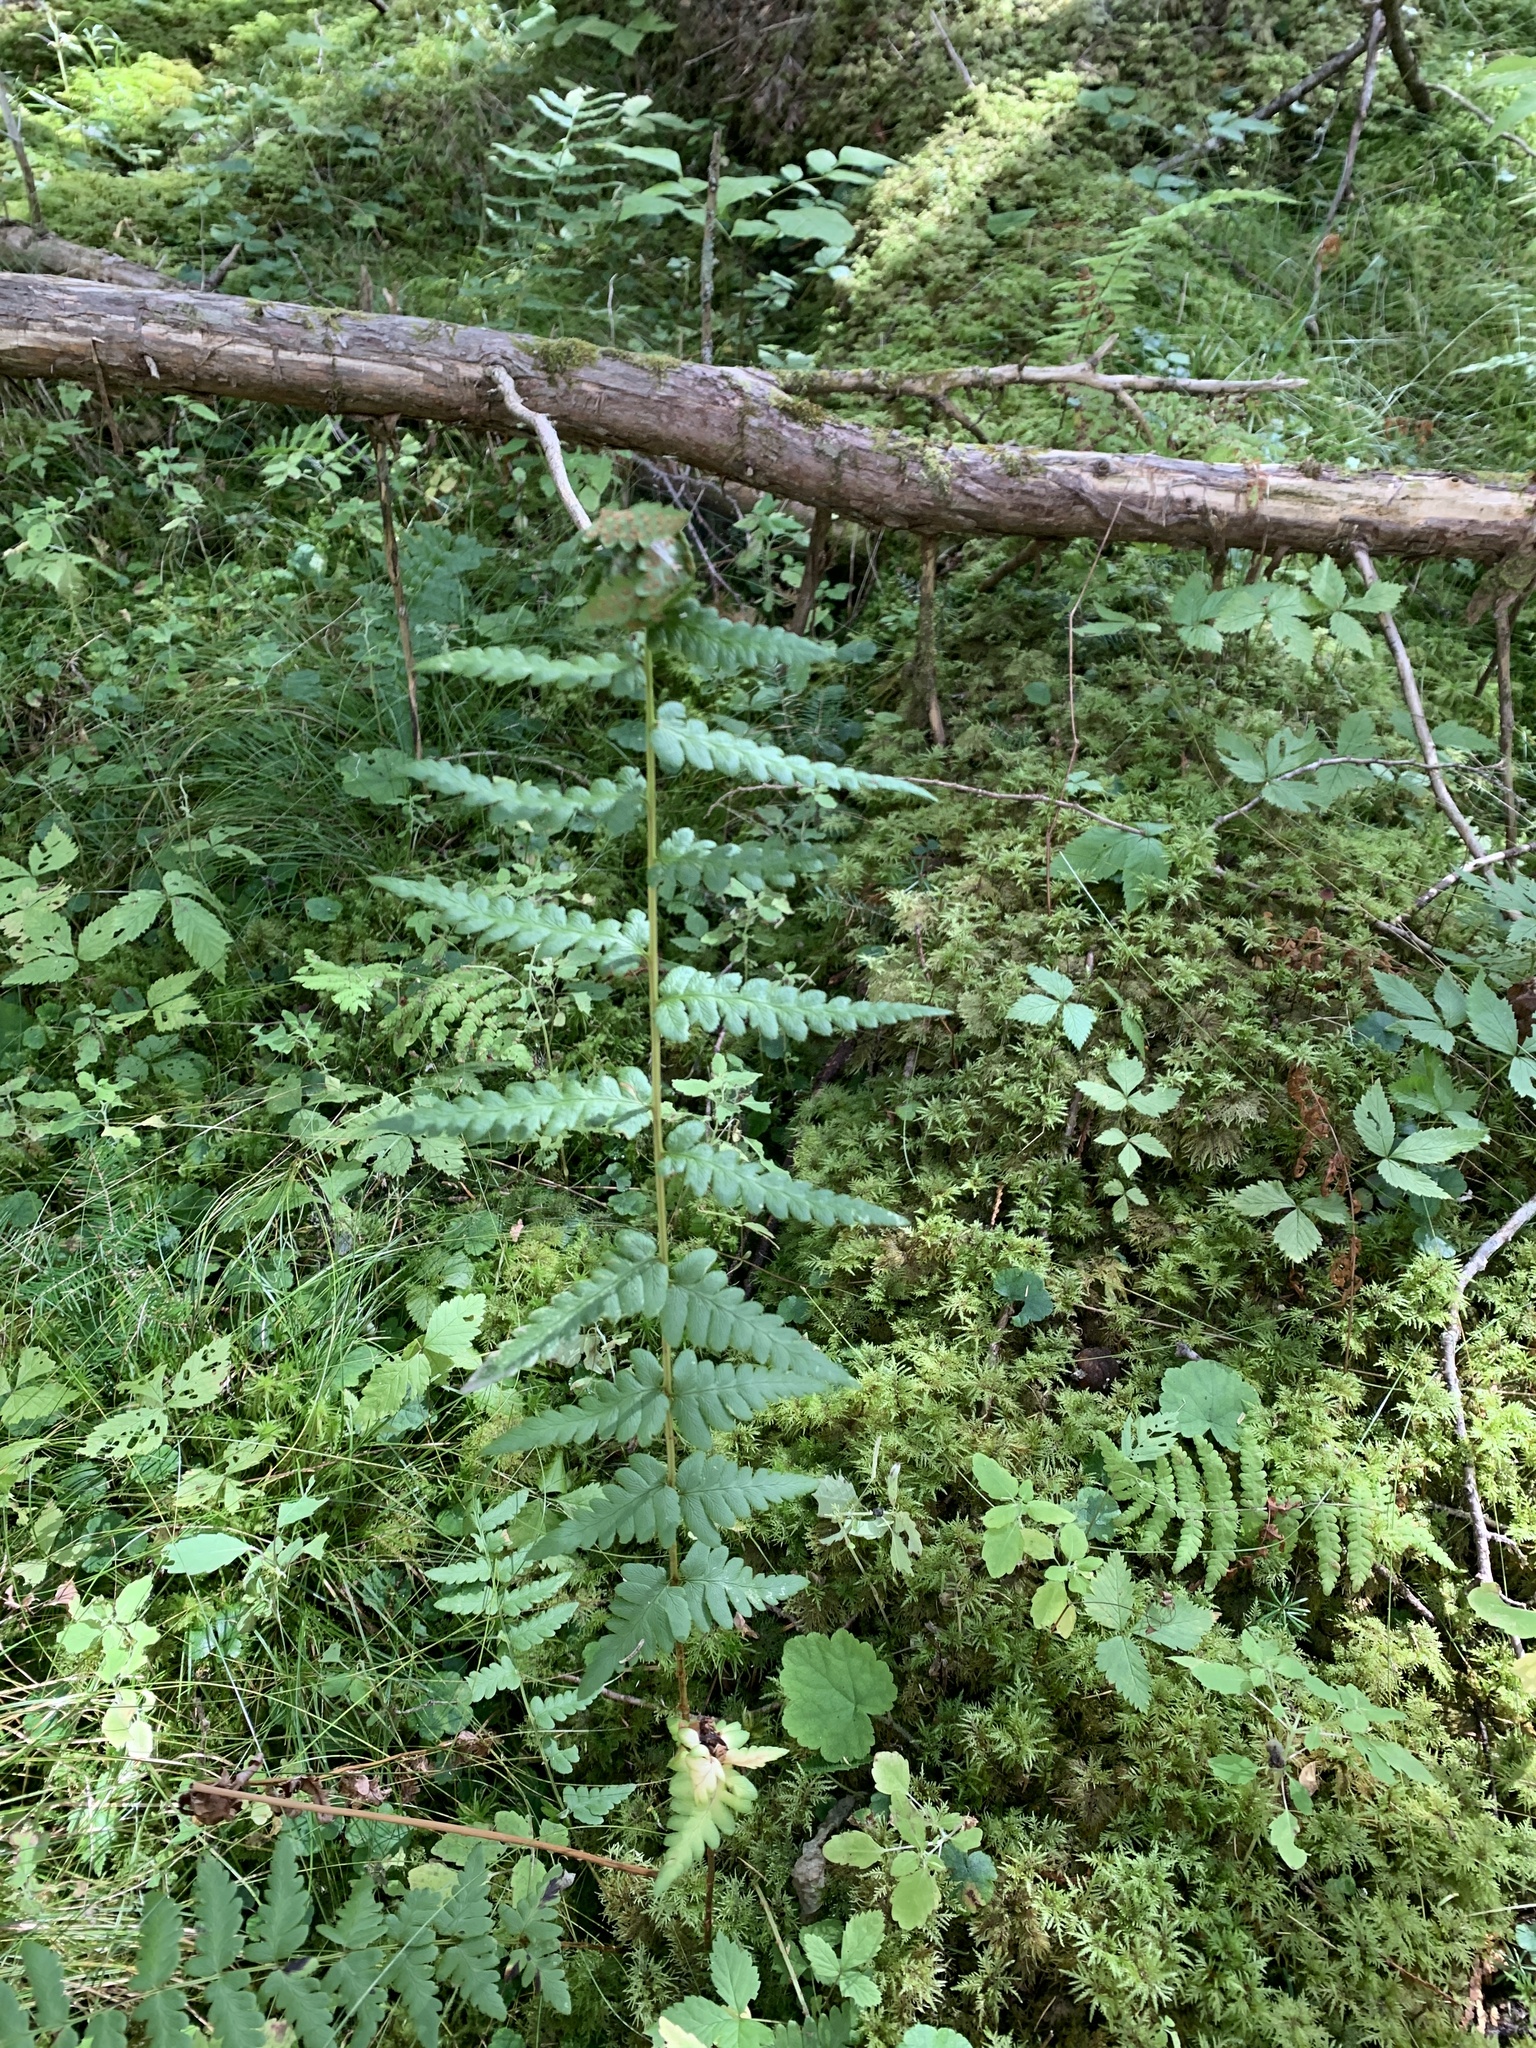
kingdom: Plantae
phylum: Tracheophyta
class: Polypodiopsida
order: Polypodiales
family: Dryopteridaceae
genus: Dryopteris
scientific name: Dryopteris cristata
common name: Crested wood fern
